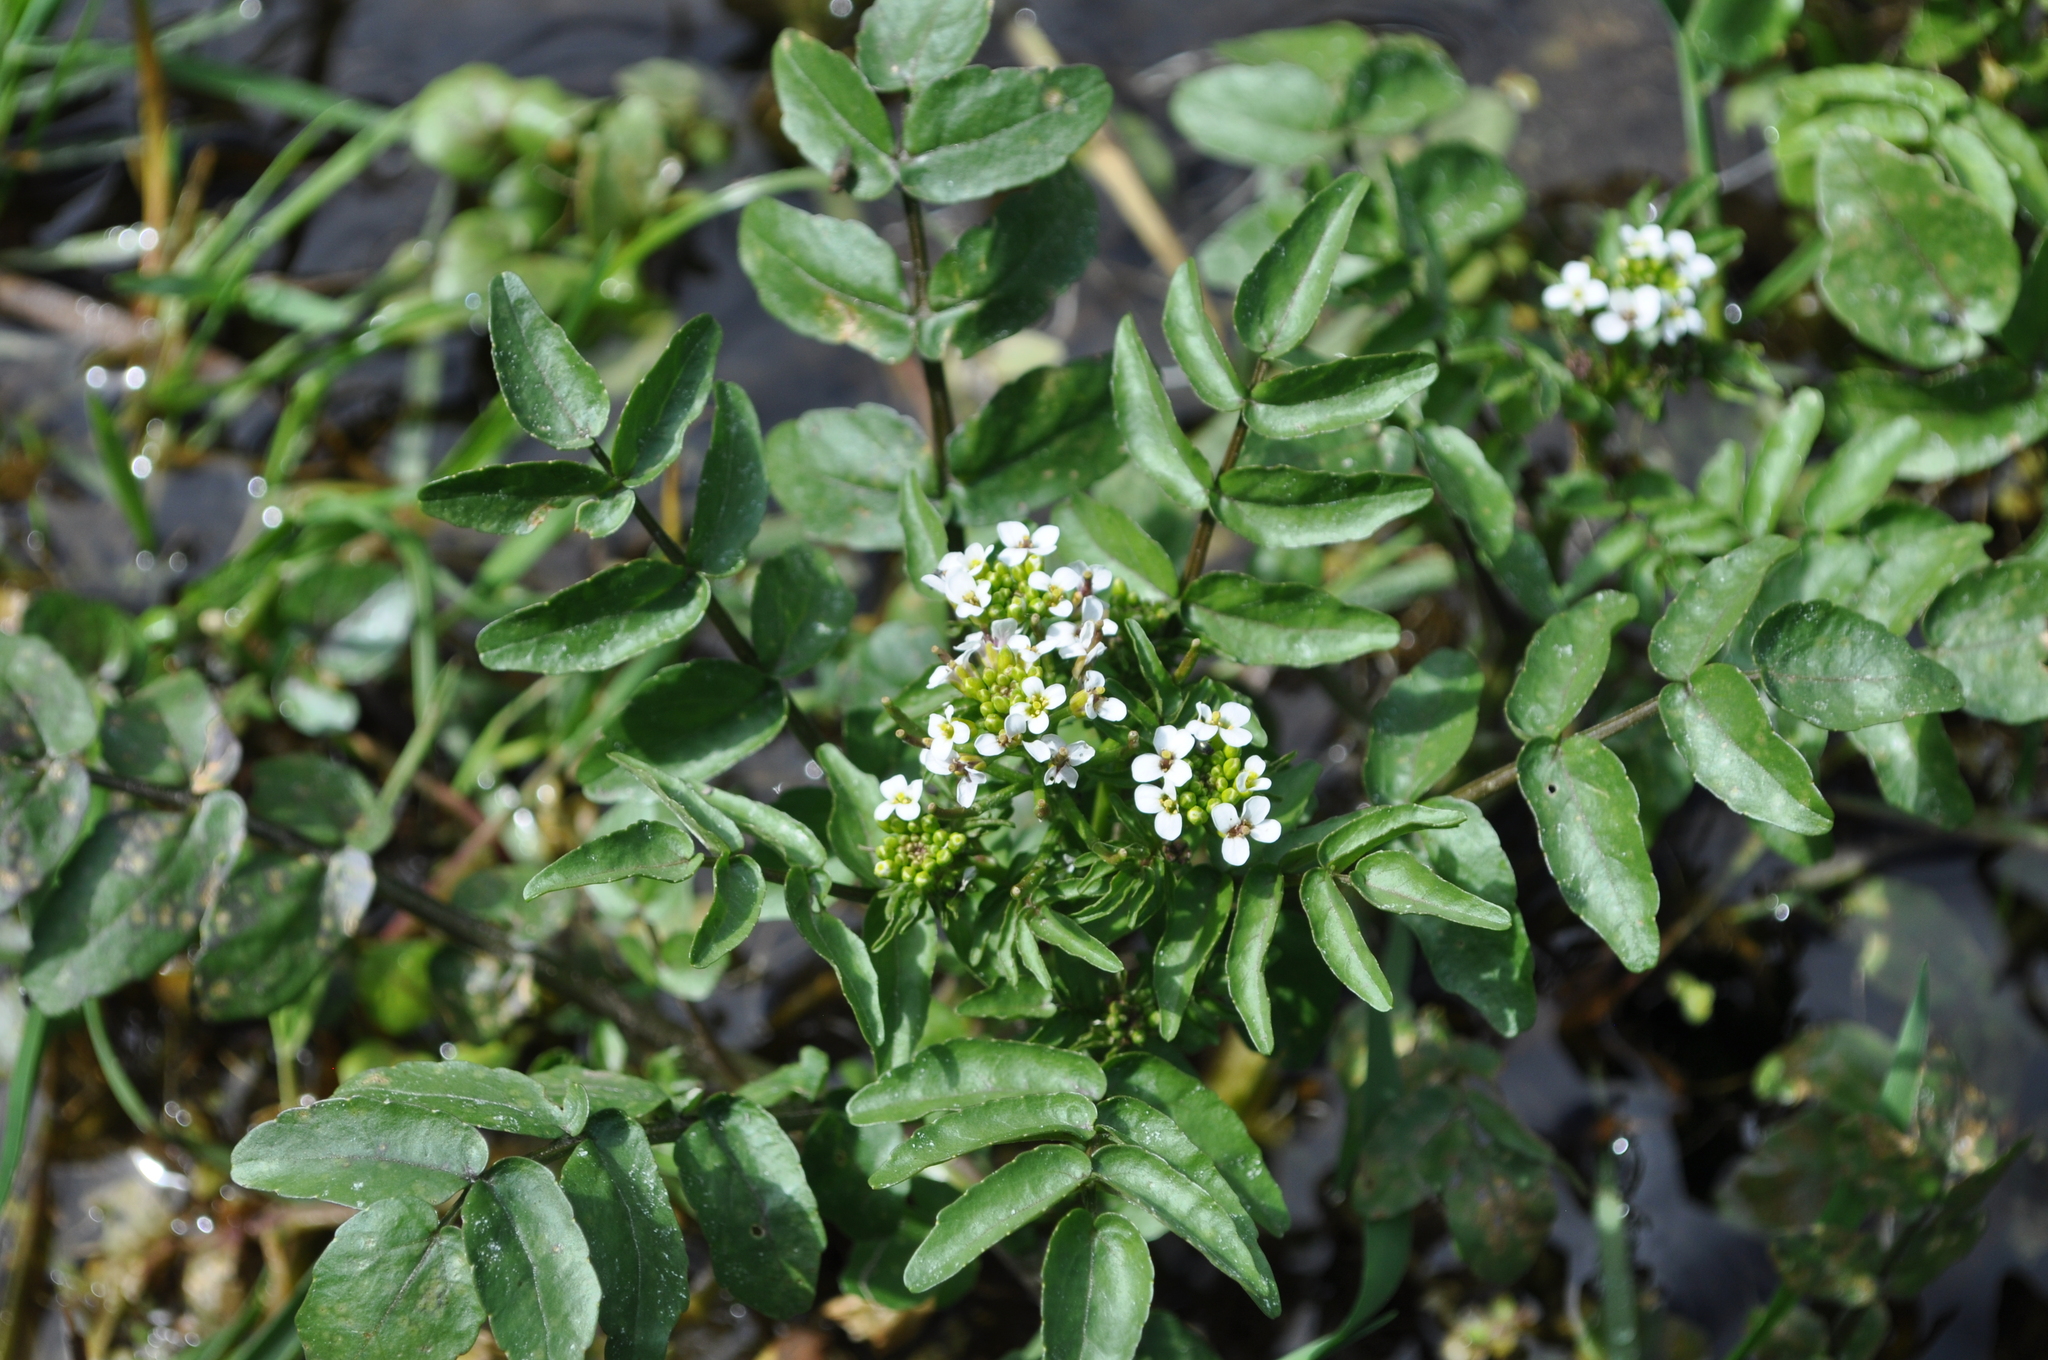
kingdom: Plantae
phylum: Tracheophyta
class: Magnoliopsida
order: Brassicales
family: Brassicaceae
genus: Nasturtium
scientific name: Nasturtium officinale
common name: Watercress
